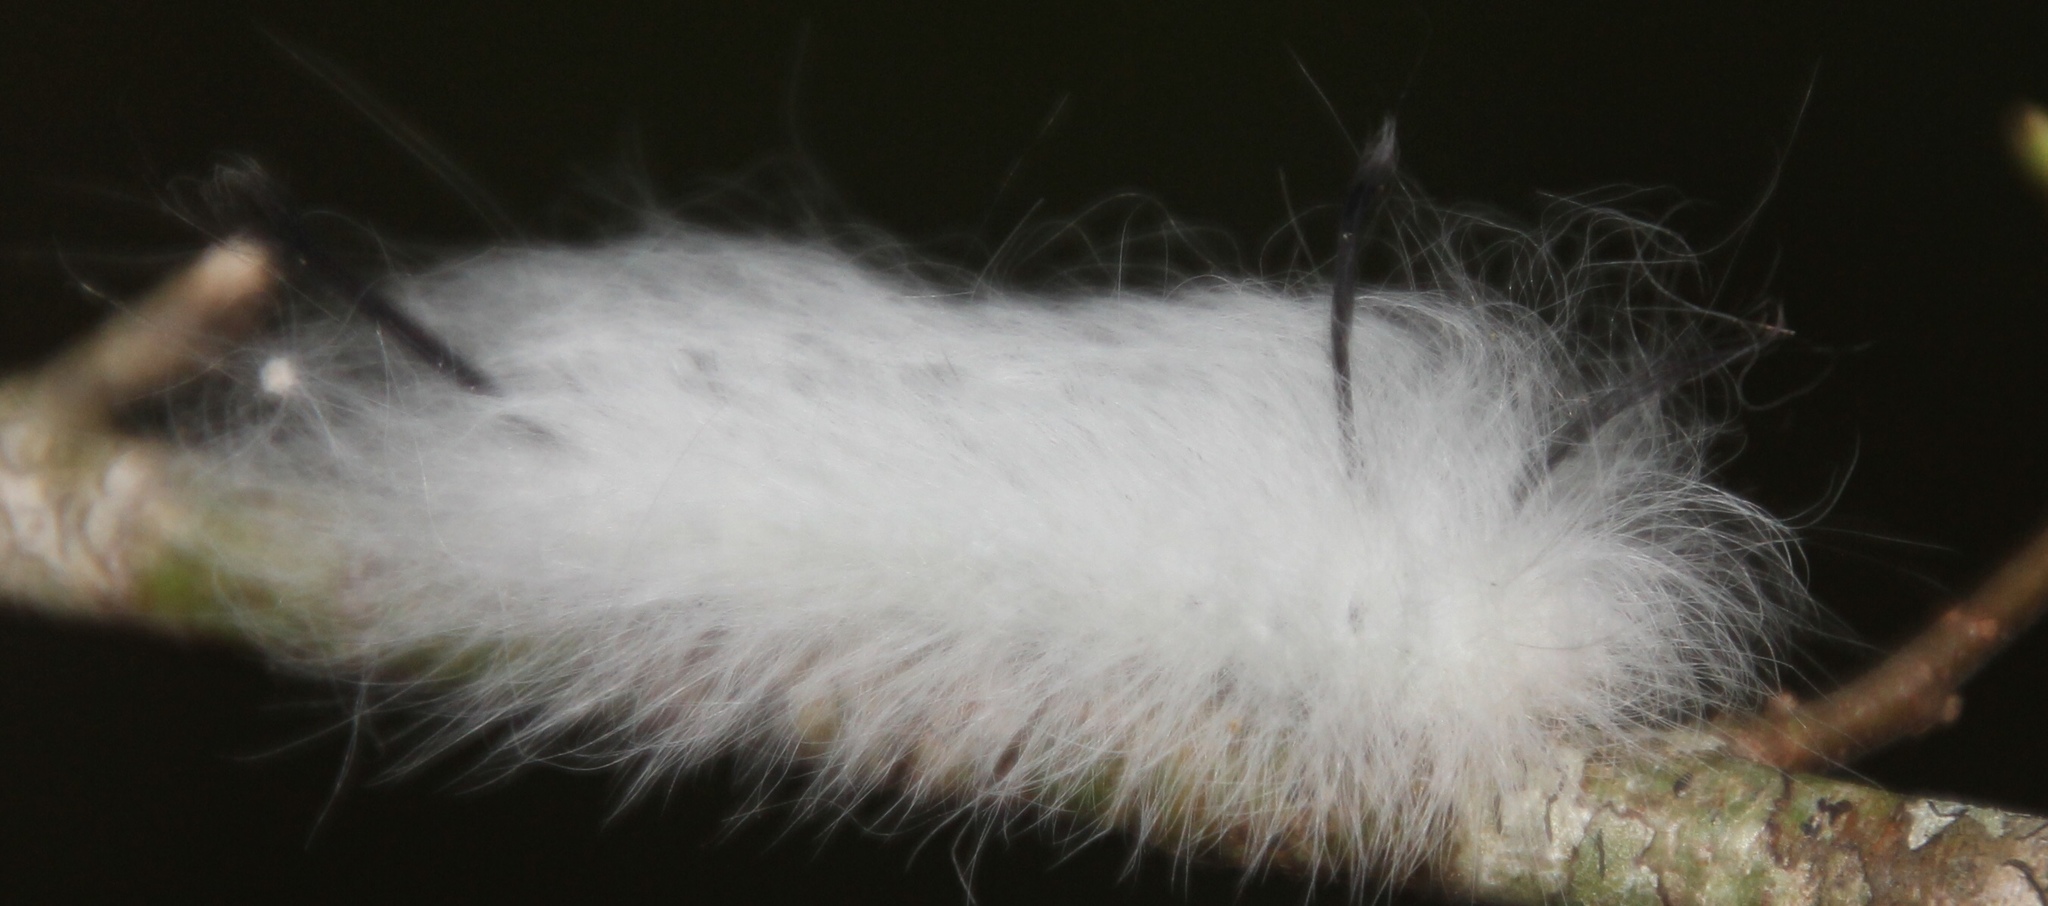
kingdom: Animalia
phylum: Arthropoda
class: Insecta
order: Lepidoptera
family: Apatelodidae
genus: Hygrochroa
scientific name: Hygrochroa Apatelodes torrefacta
